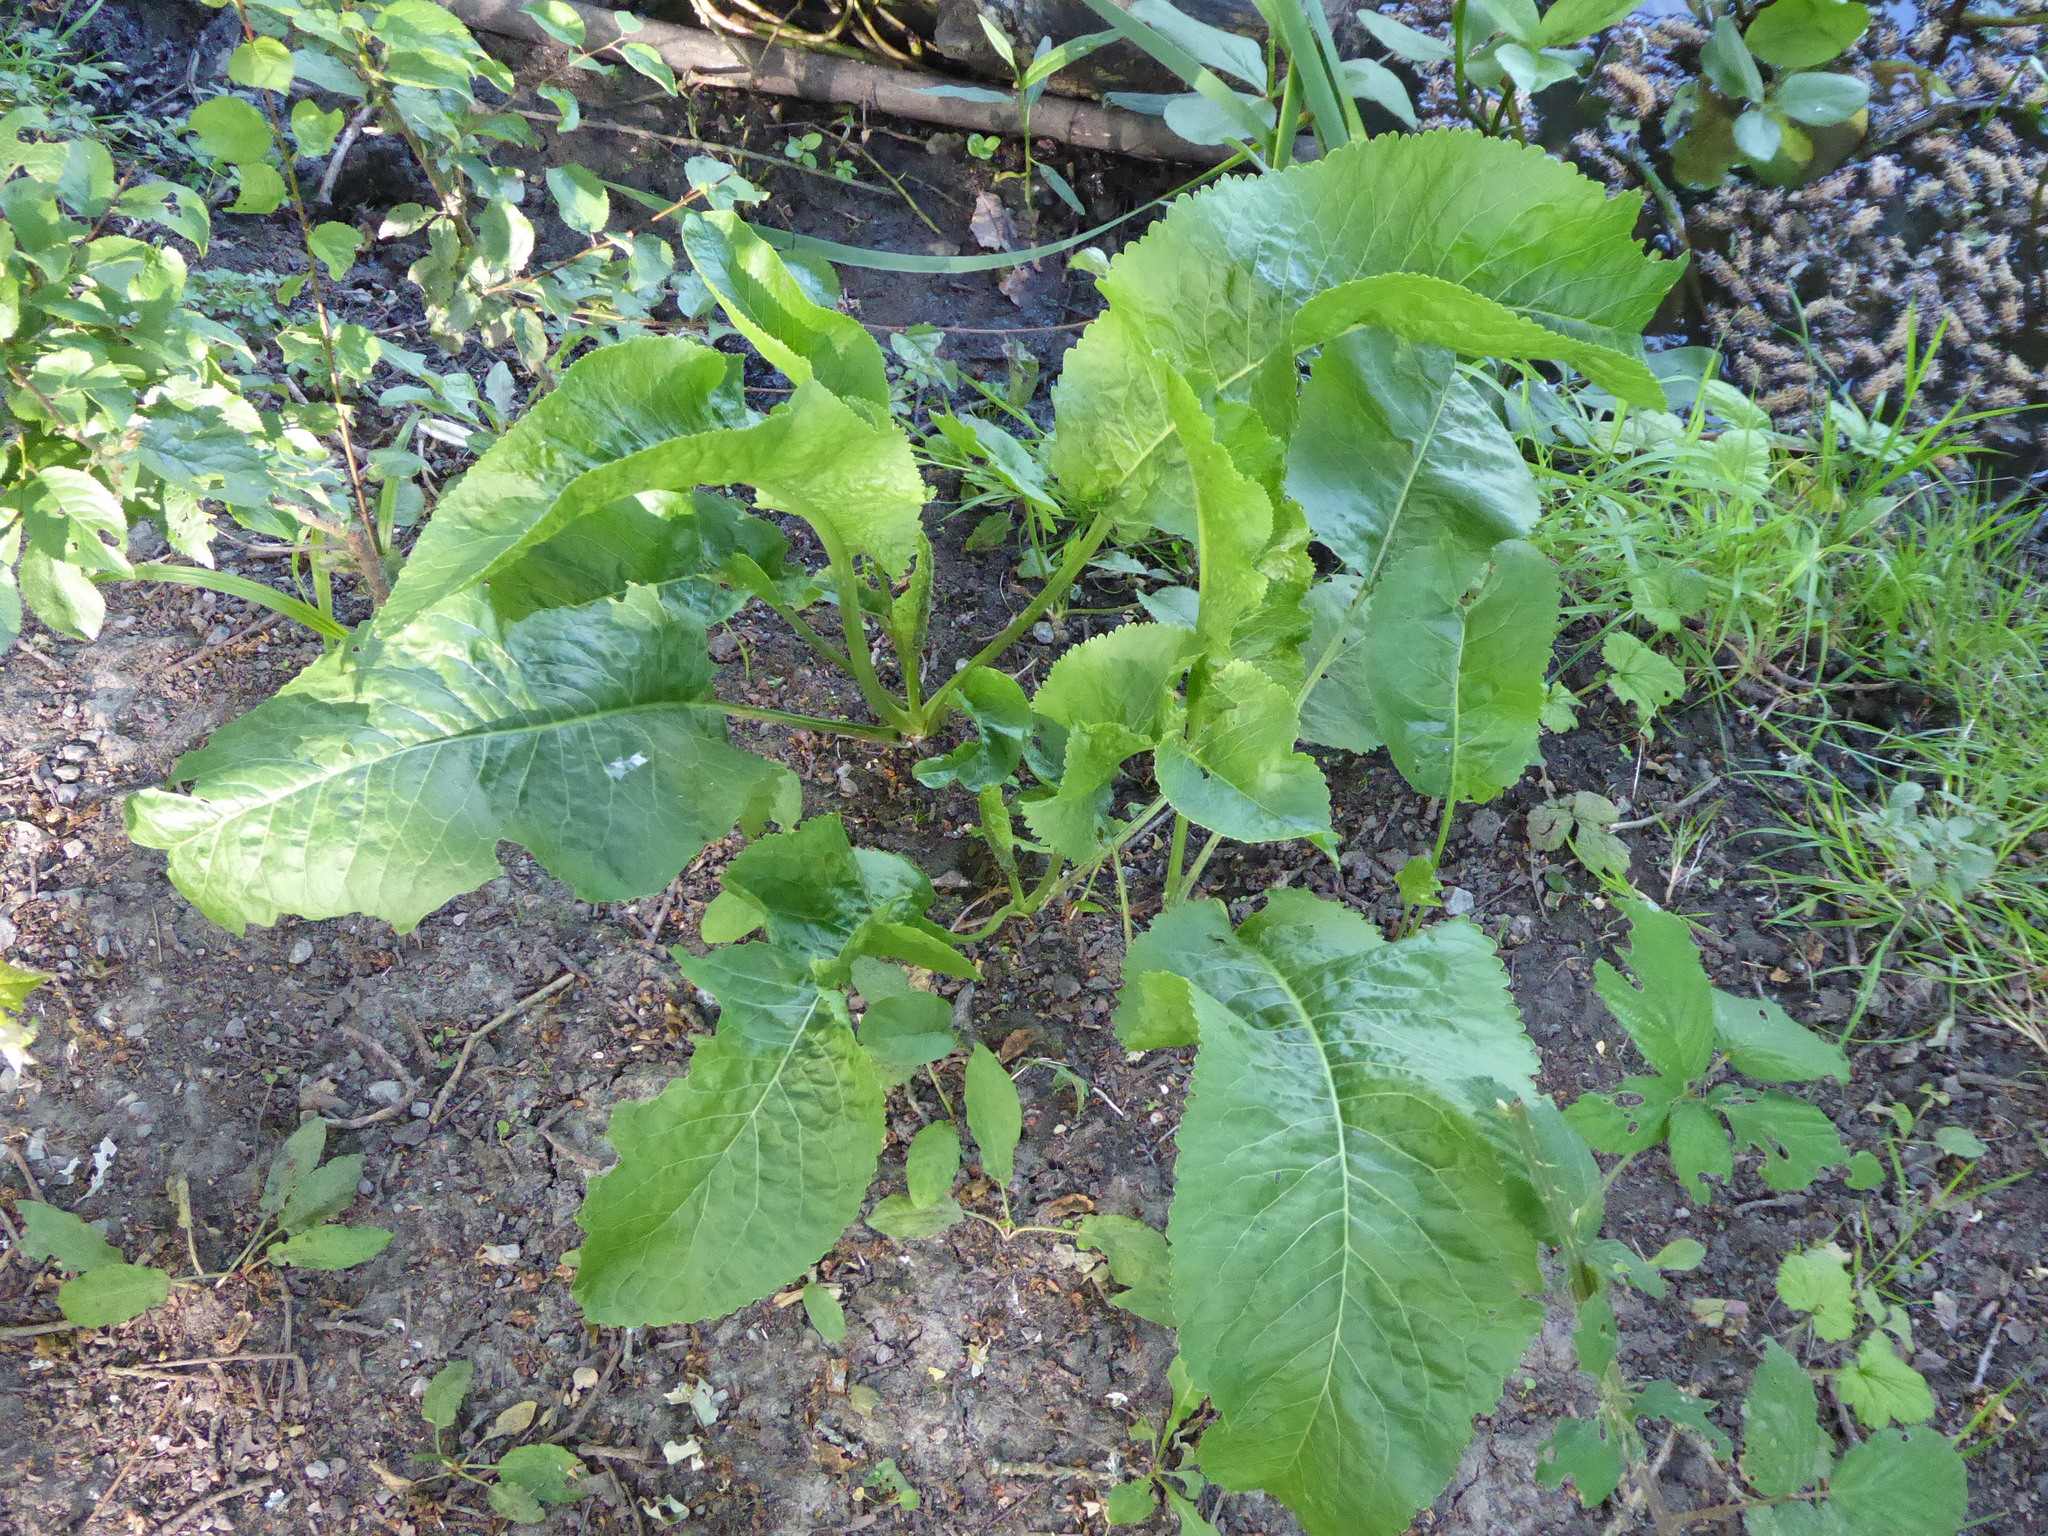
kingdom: Plantae
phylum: Tracheophyta
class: Magnoliopsida
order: Brassicales
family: Brassicaceae
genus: Armoracia
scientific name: Armoracia rusticana
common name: Horseradish
